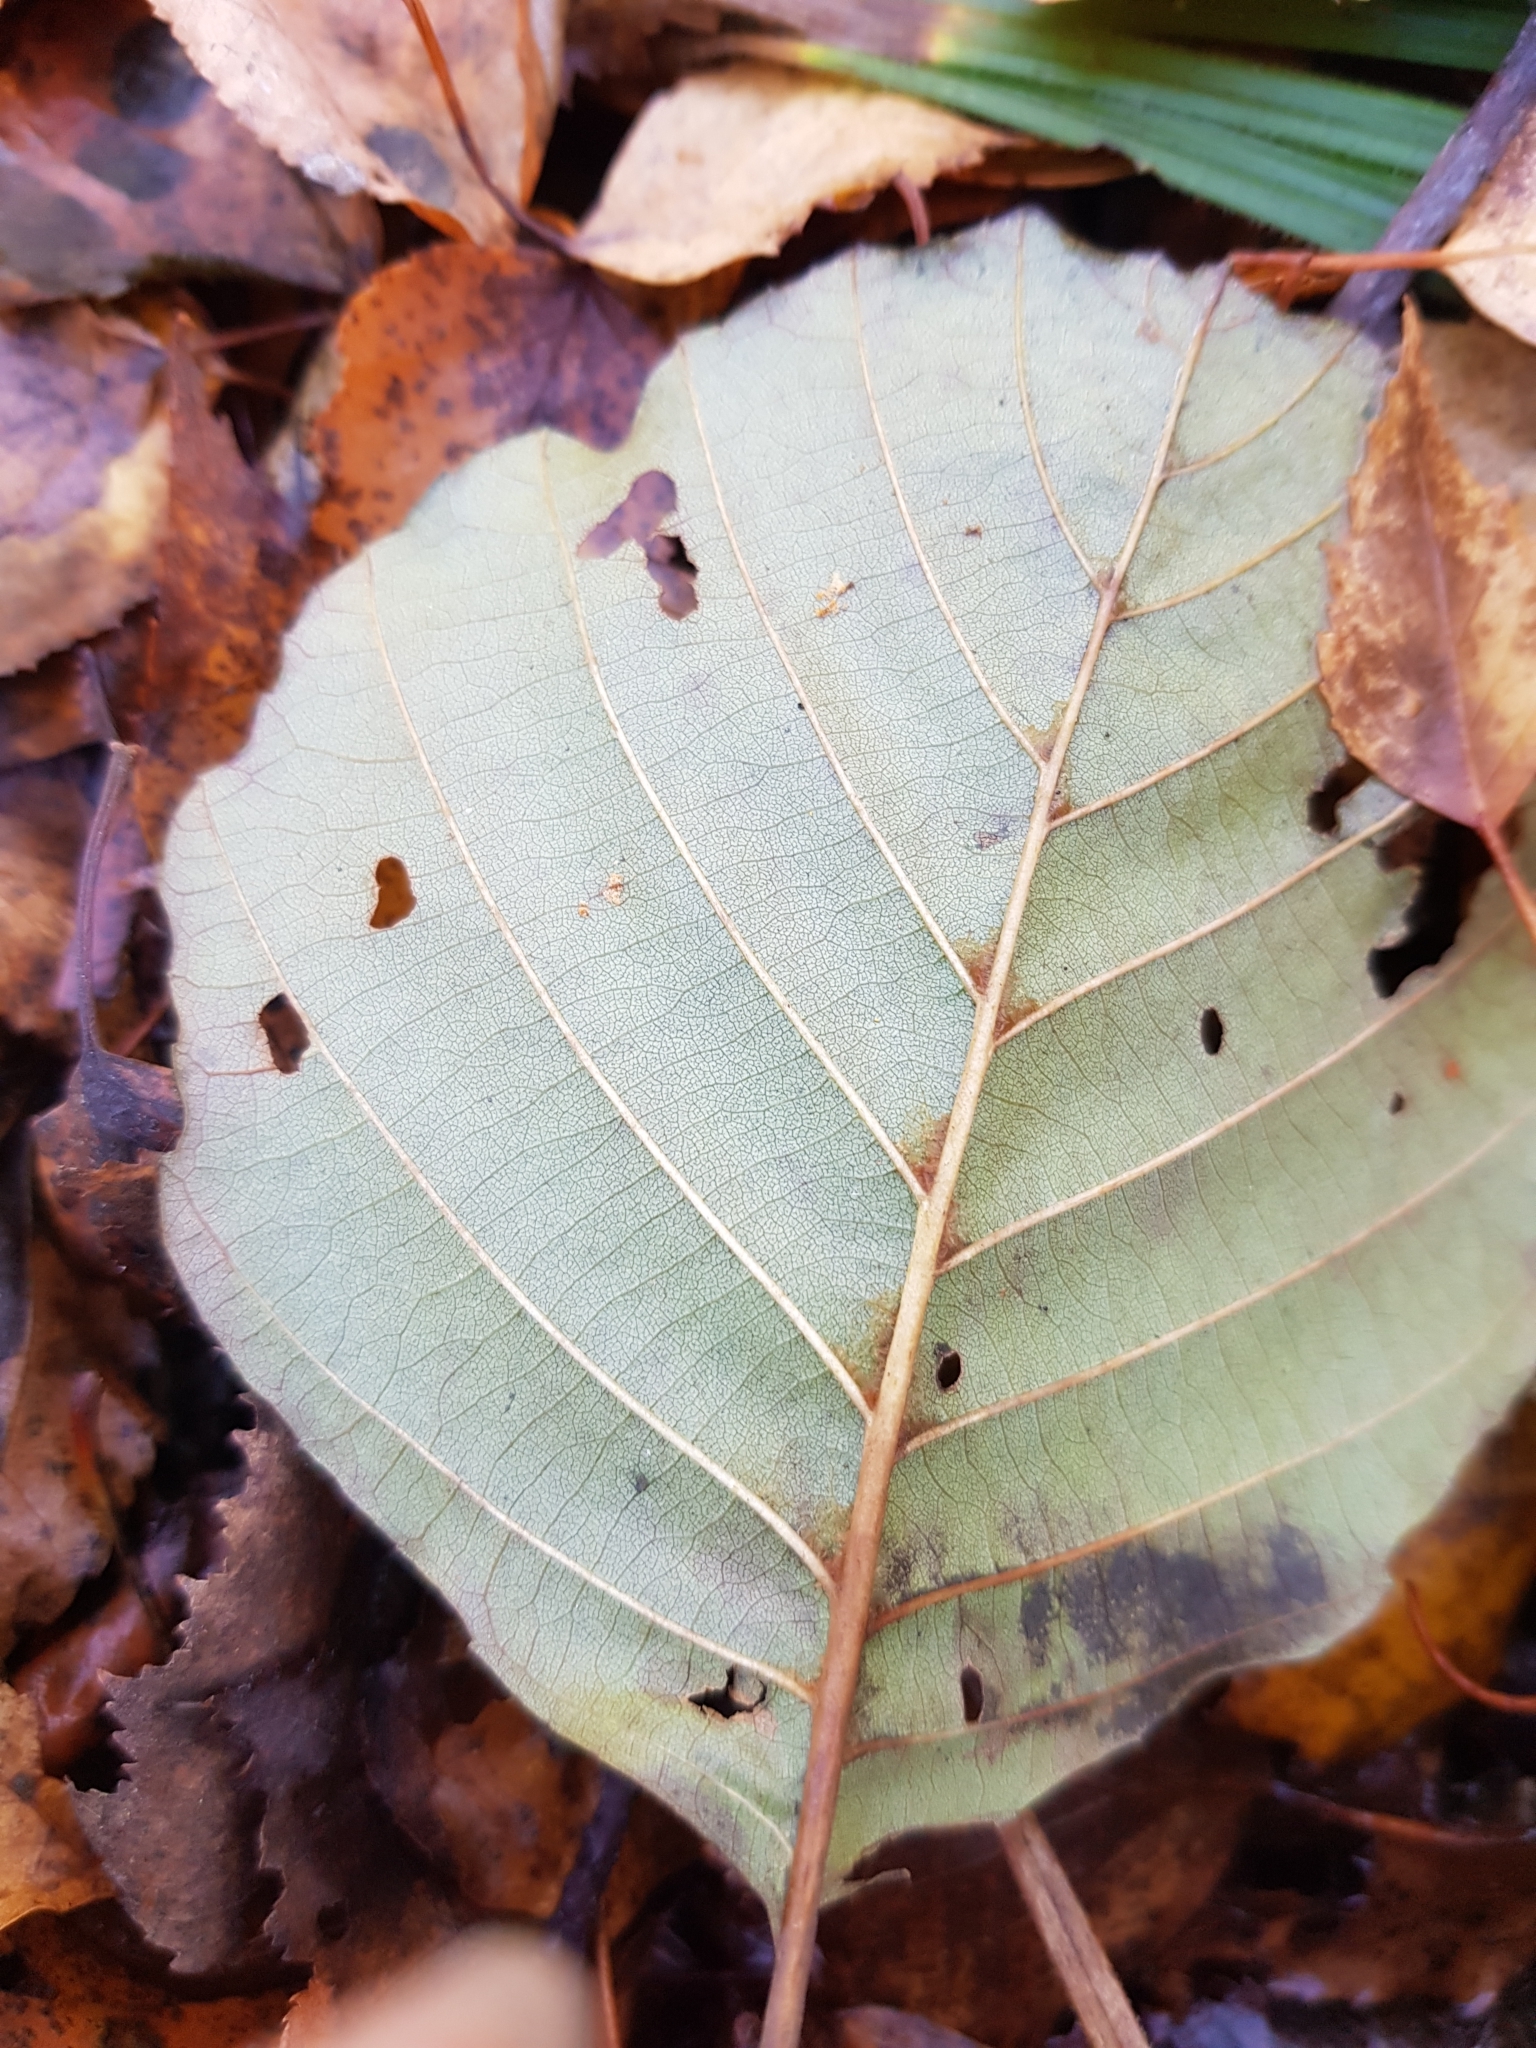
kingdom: Plantae
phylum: Tracheophyta
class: Magnoliopsida
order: Fagales
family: Betulaceae
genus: Alnus
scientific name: Alnus glutinosa
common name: Black alder
